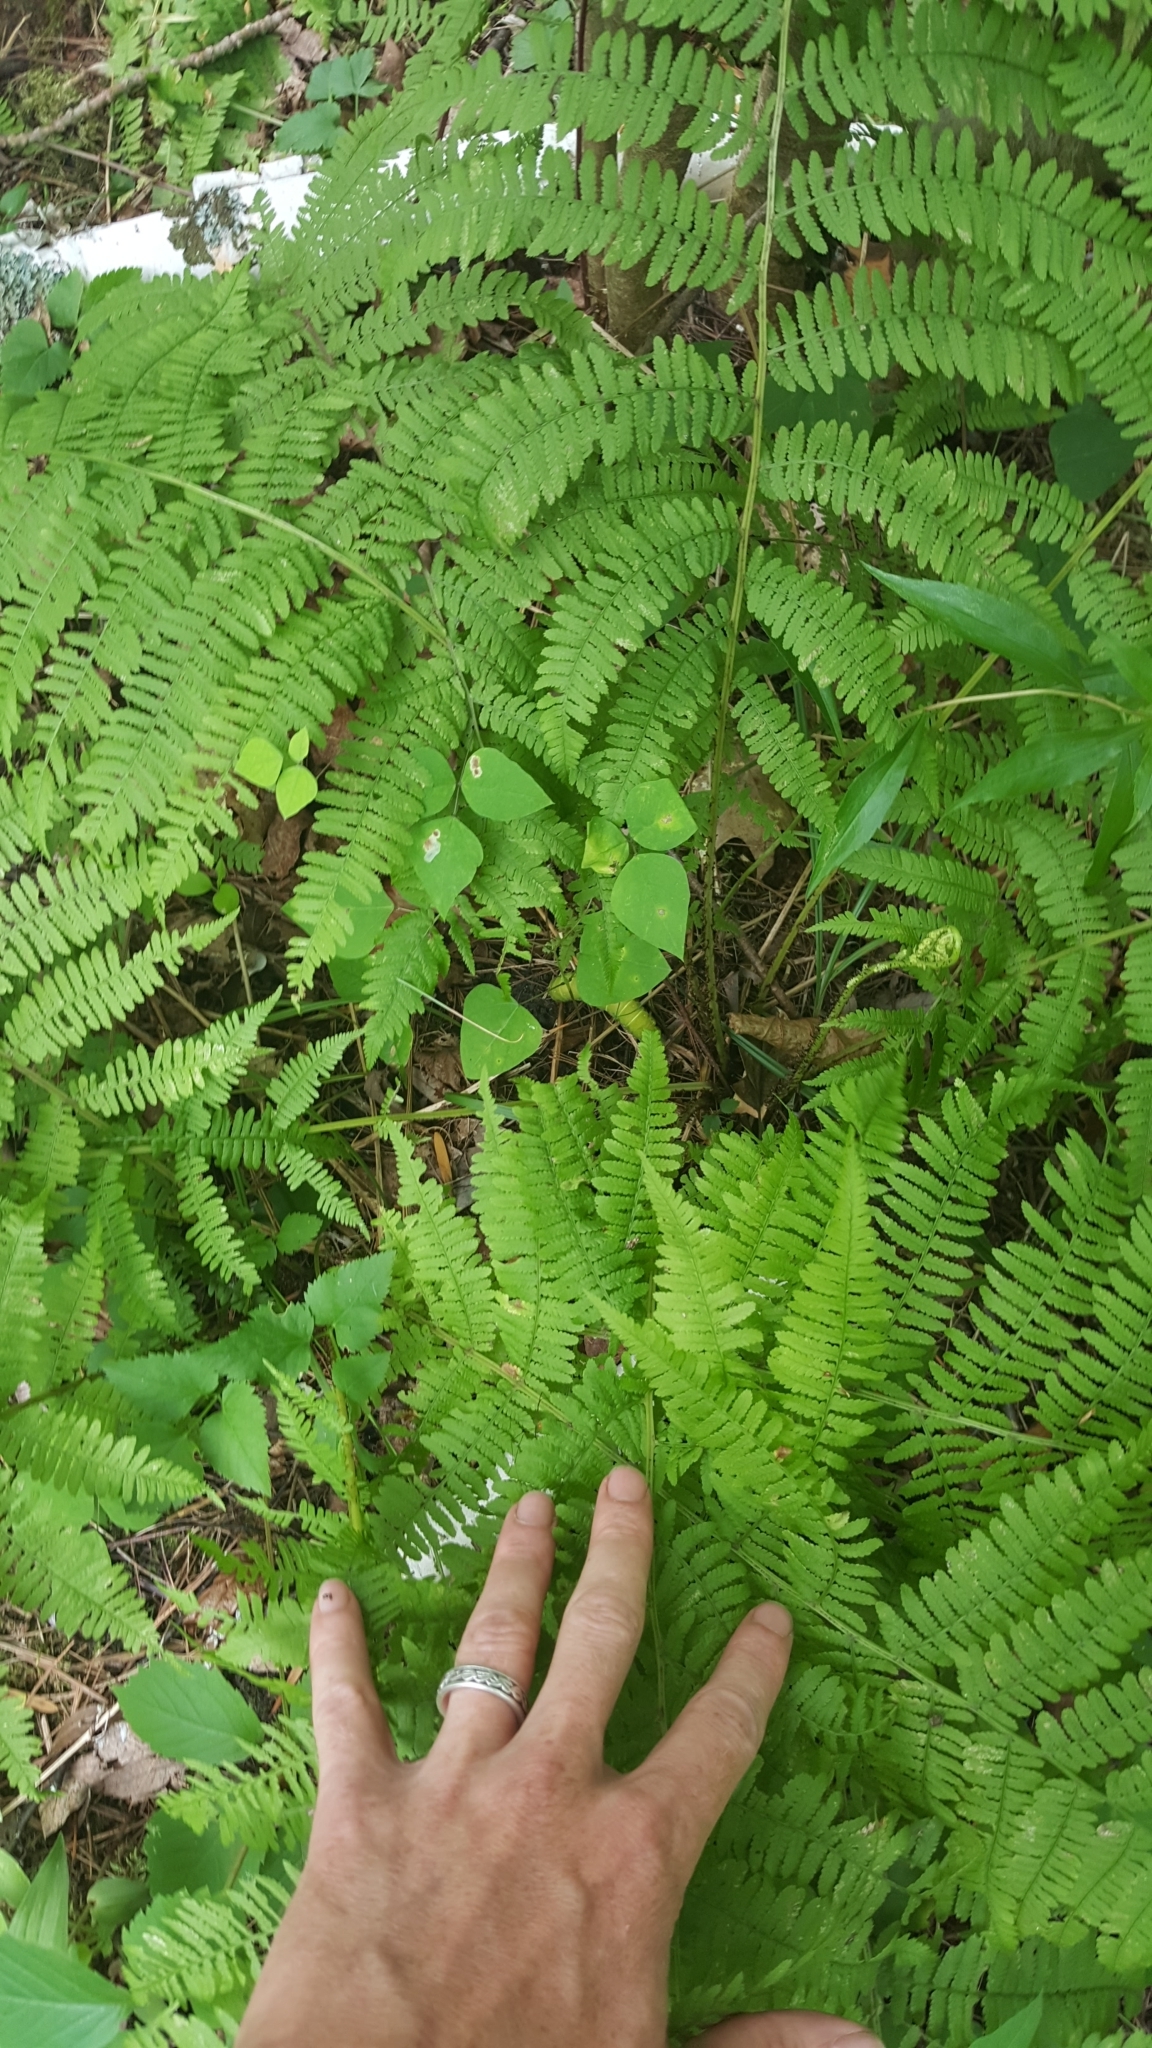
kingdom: Plantae
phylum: Tracheophyta
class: Polypodiopsida
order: Polypodiales
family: Athyriaceae
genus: Athyrium
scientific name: Athyrium angustum
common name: Northern lady fern
